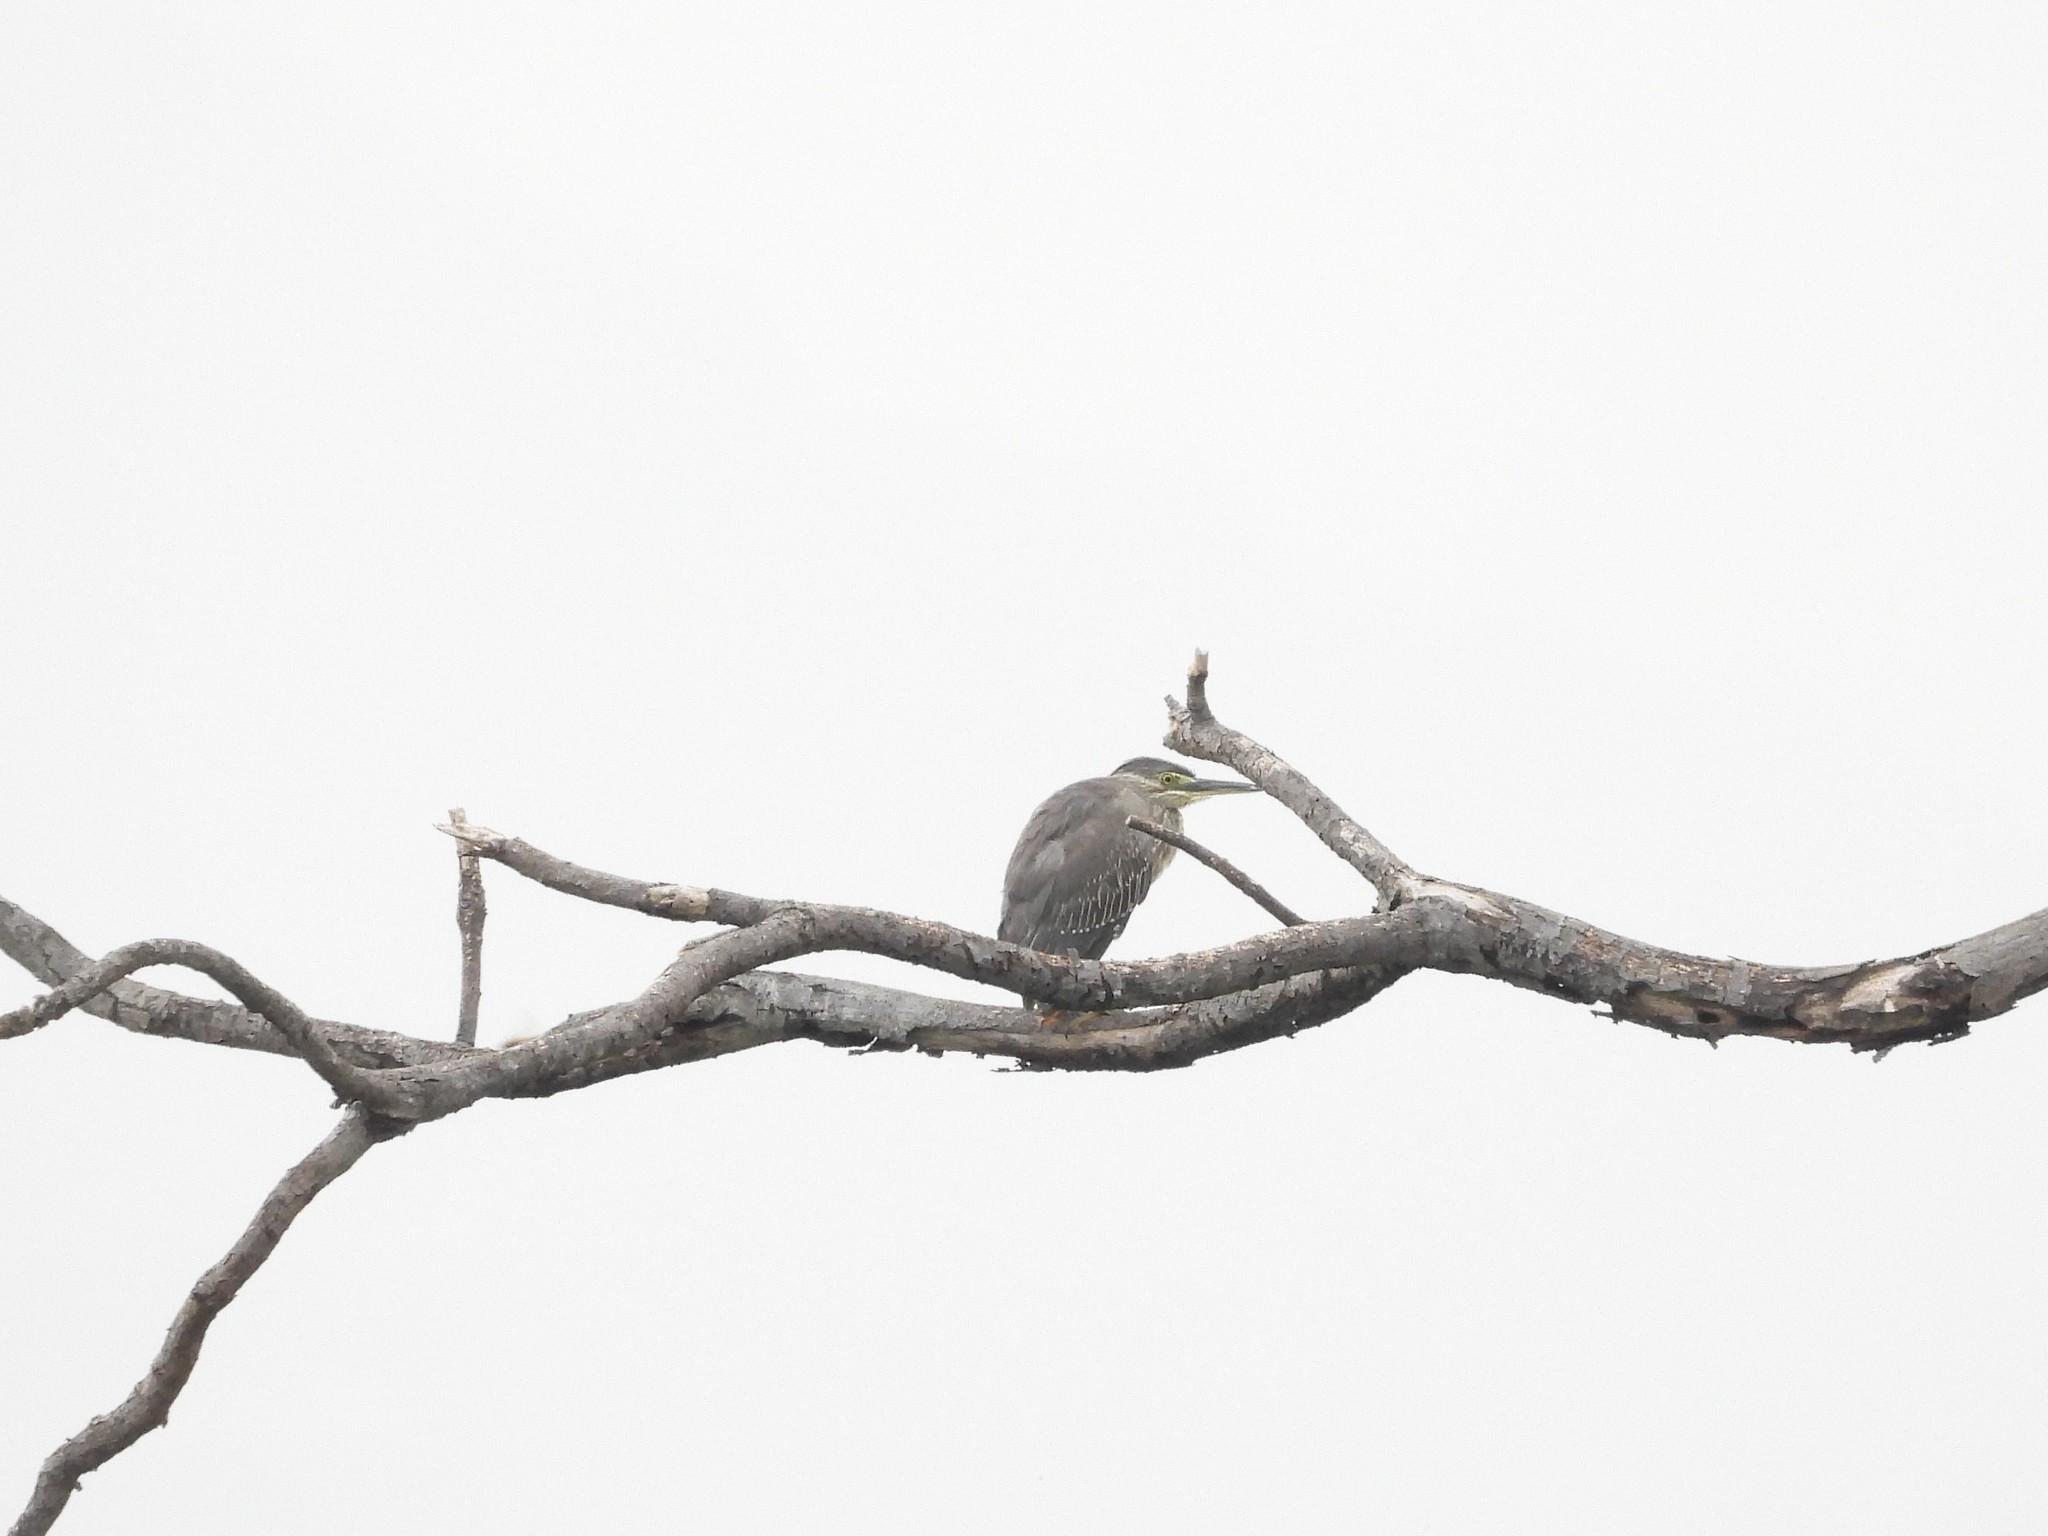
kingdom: Animalia
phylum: Chordata
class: Aves
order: Pelecaniformes
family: Ardeidae
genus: Butorides
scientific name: Butorides striata
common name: Striated heron
